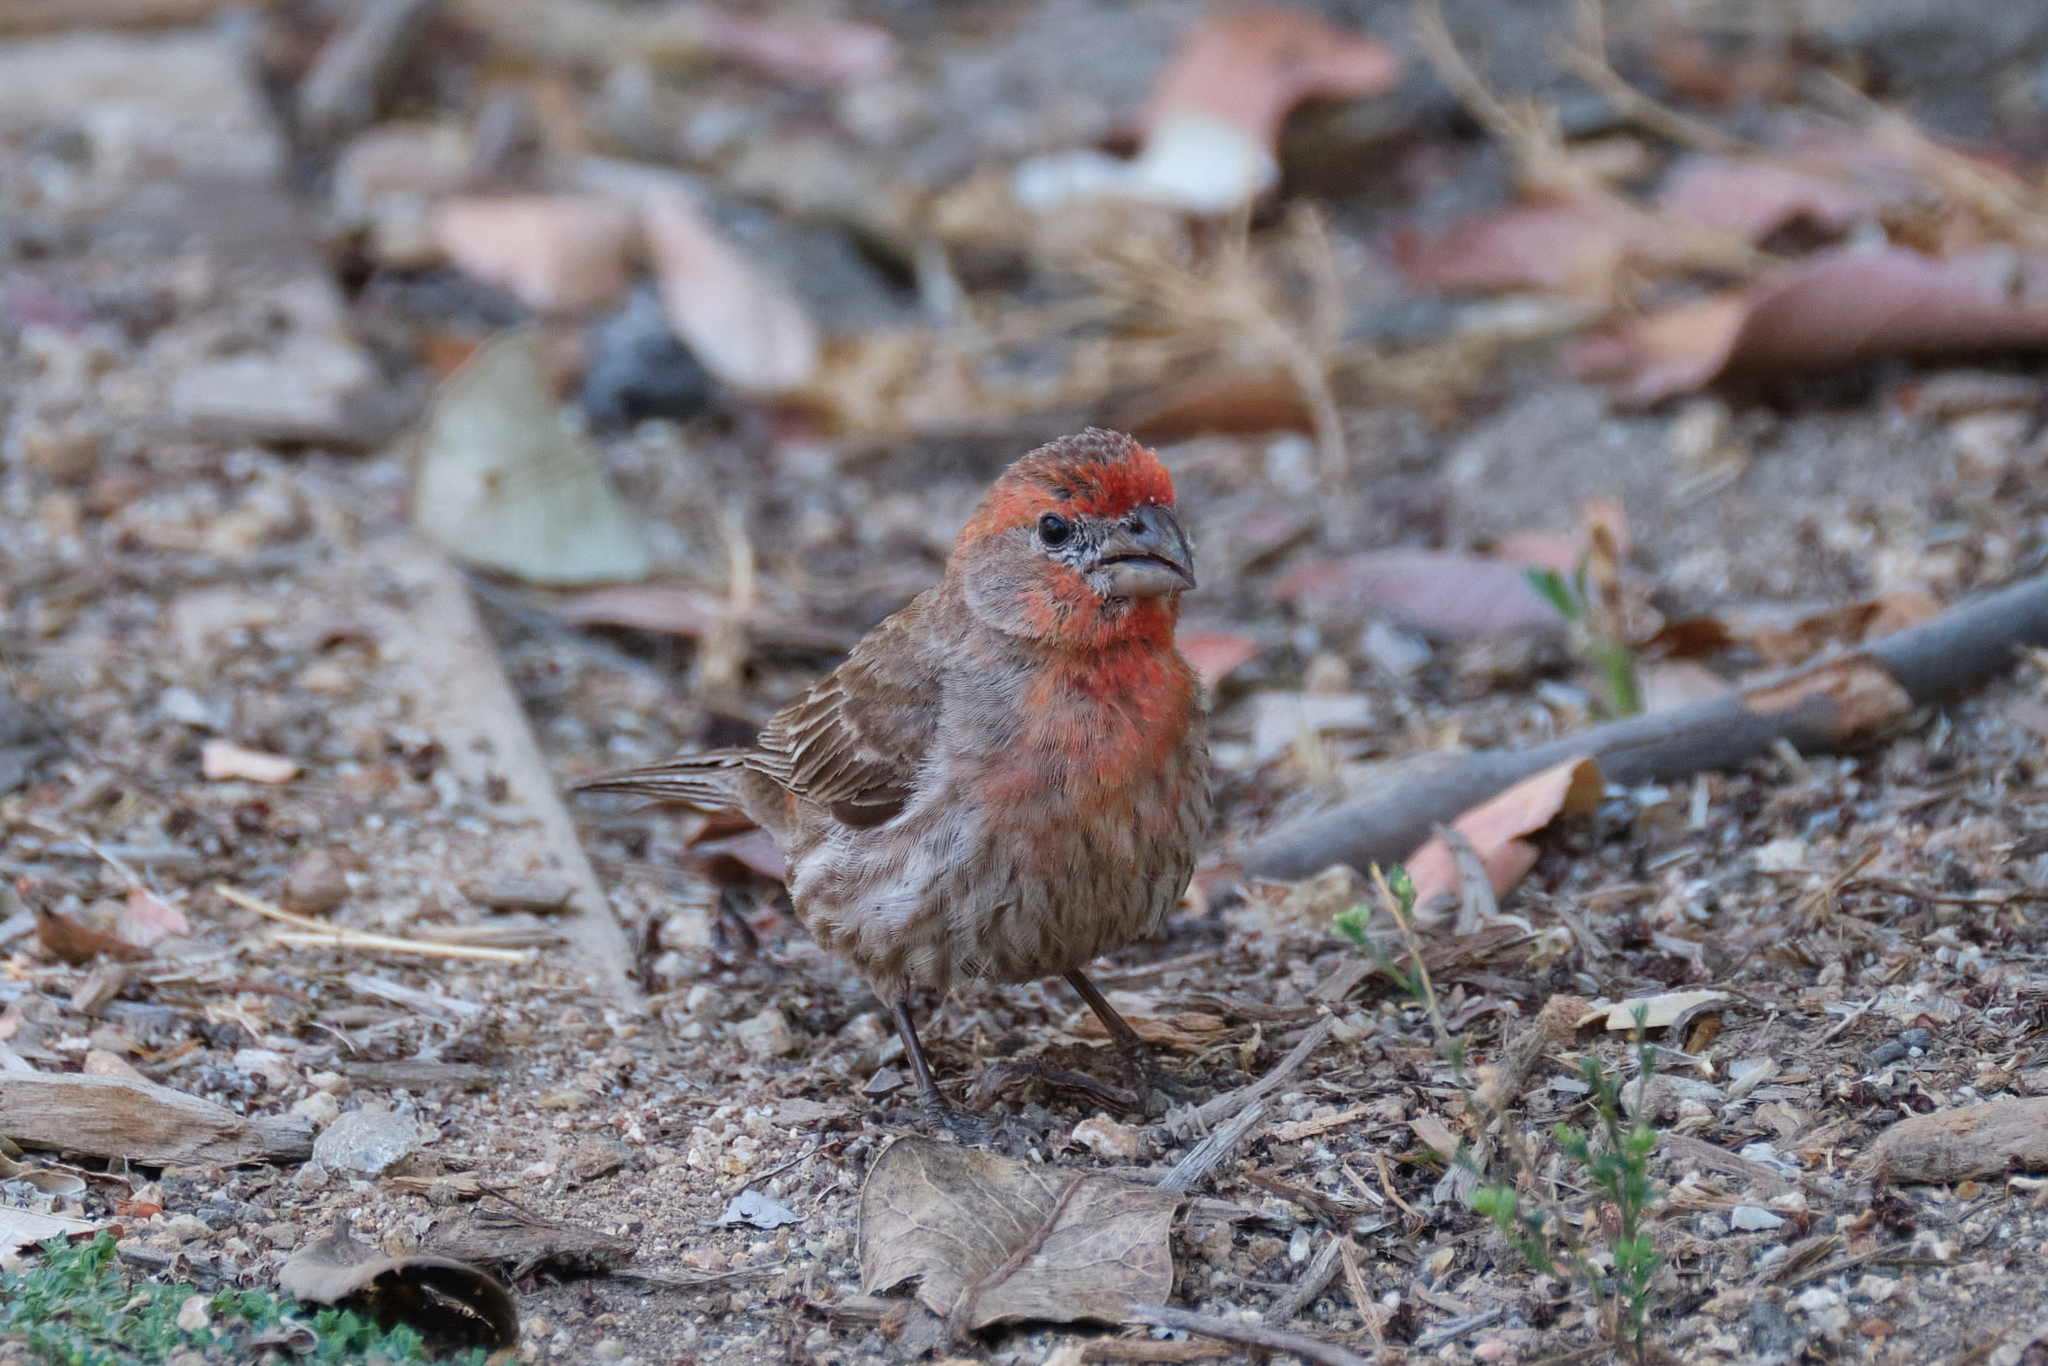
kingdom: Animalia
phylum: Chordata
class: Aves
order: Passeriformes
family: Fringillidae
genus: Haemorhous
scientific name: Haemorhous mexicanus
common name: House finch
